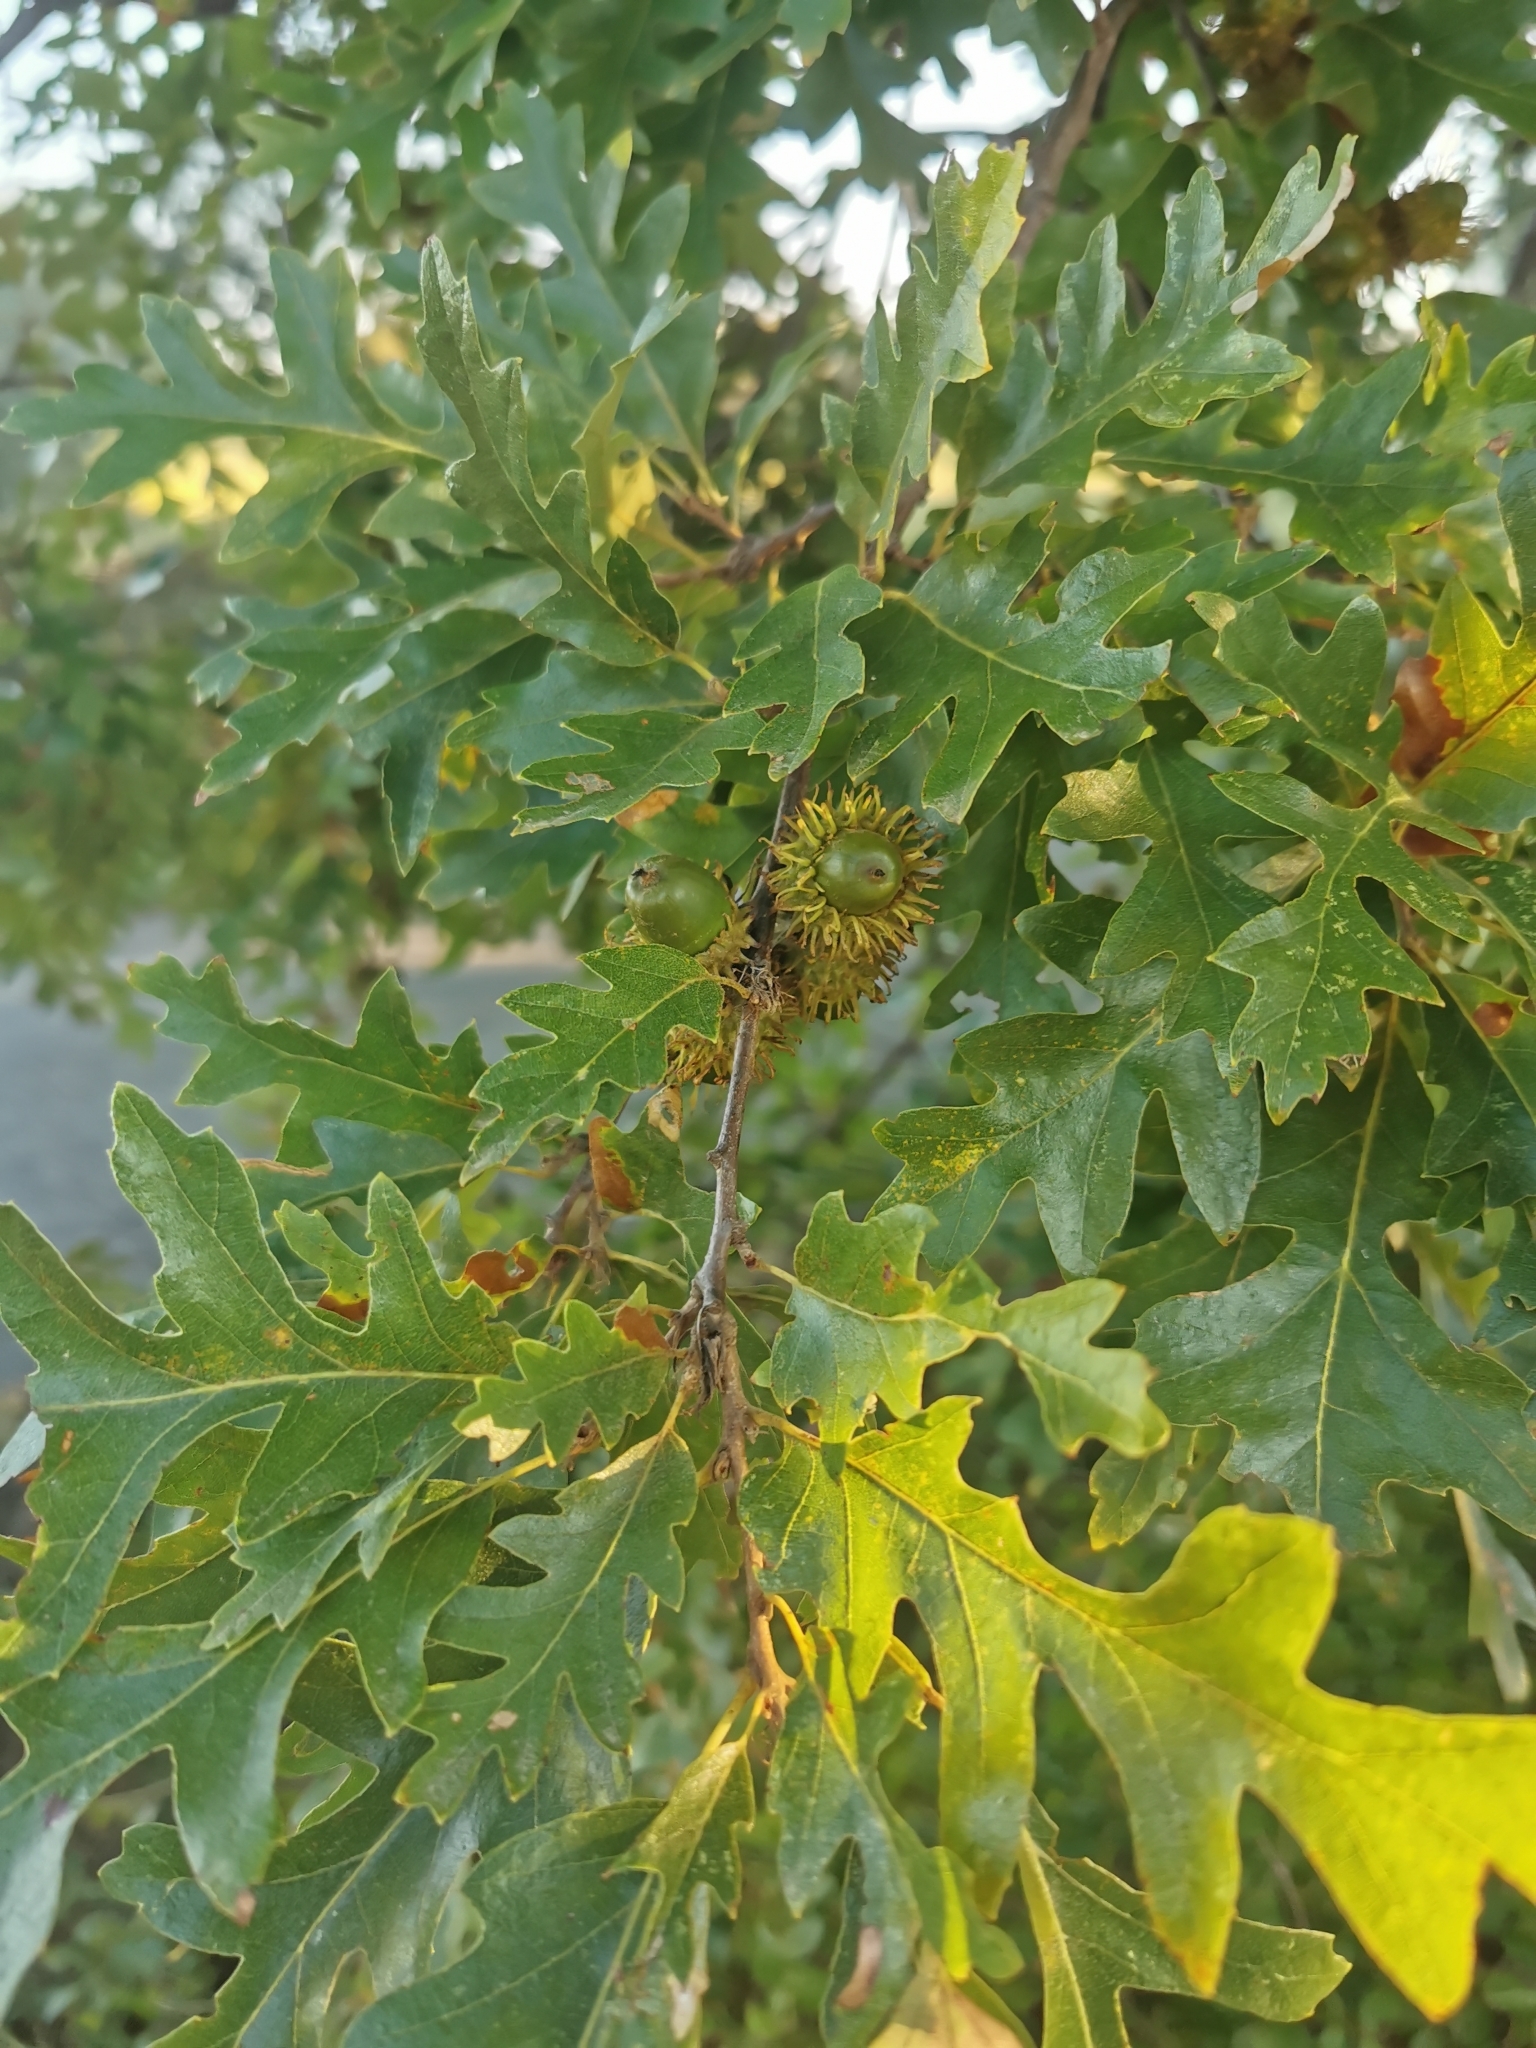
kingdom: Plantae
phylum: Tracheophyta
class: Magnoliopsida
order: Fagales
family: Fagaceae
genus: Quercus
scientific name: Quercus cerris
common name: Turkey oak
